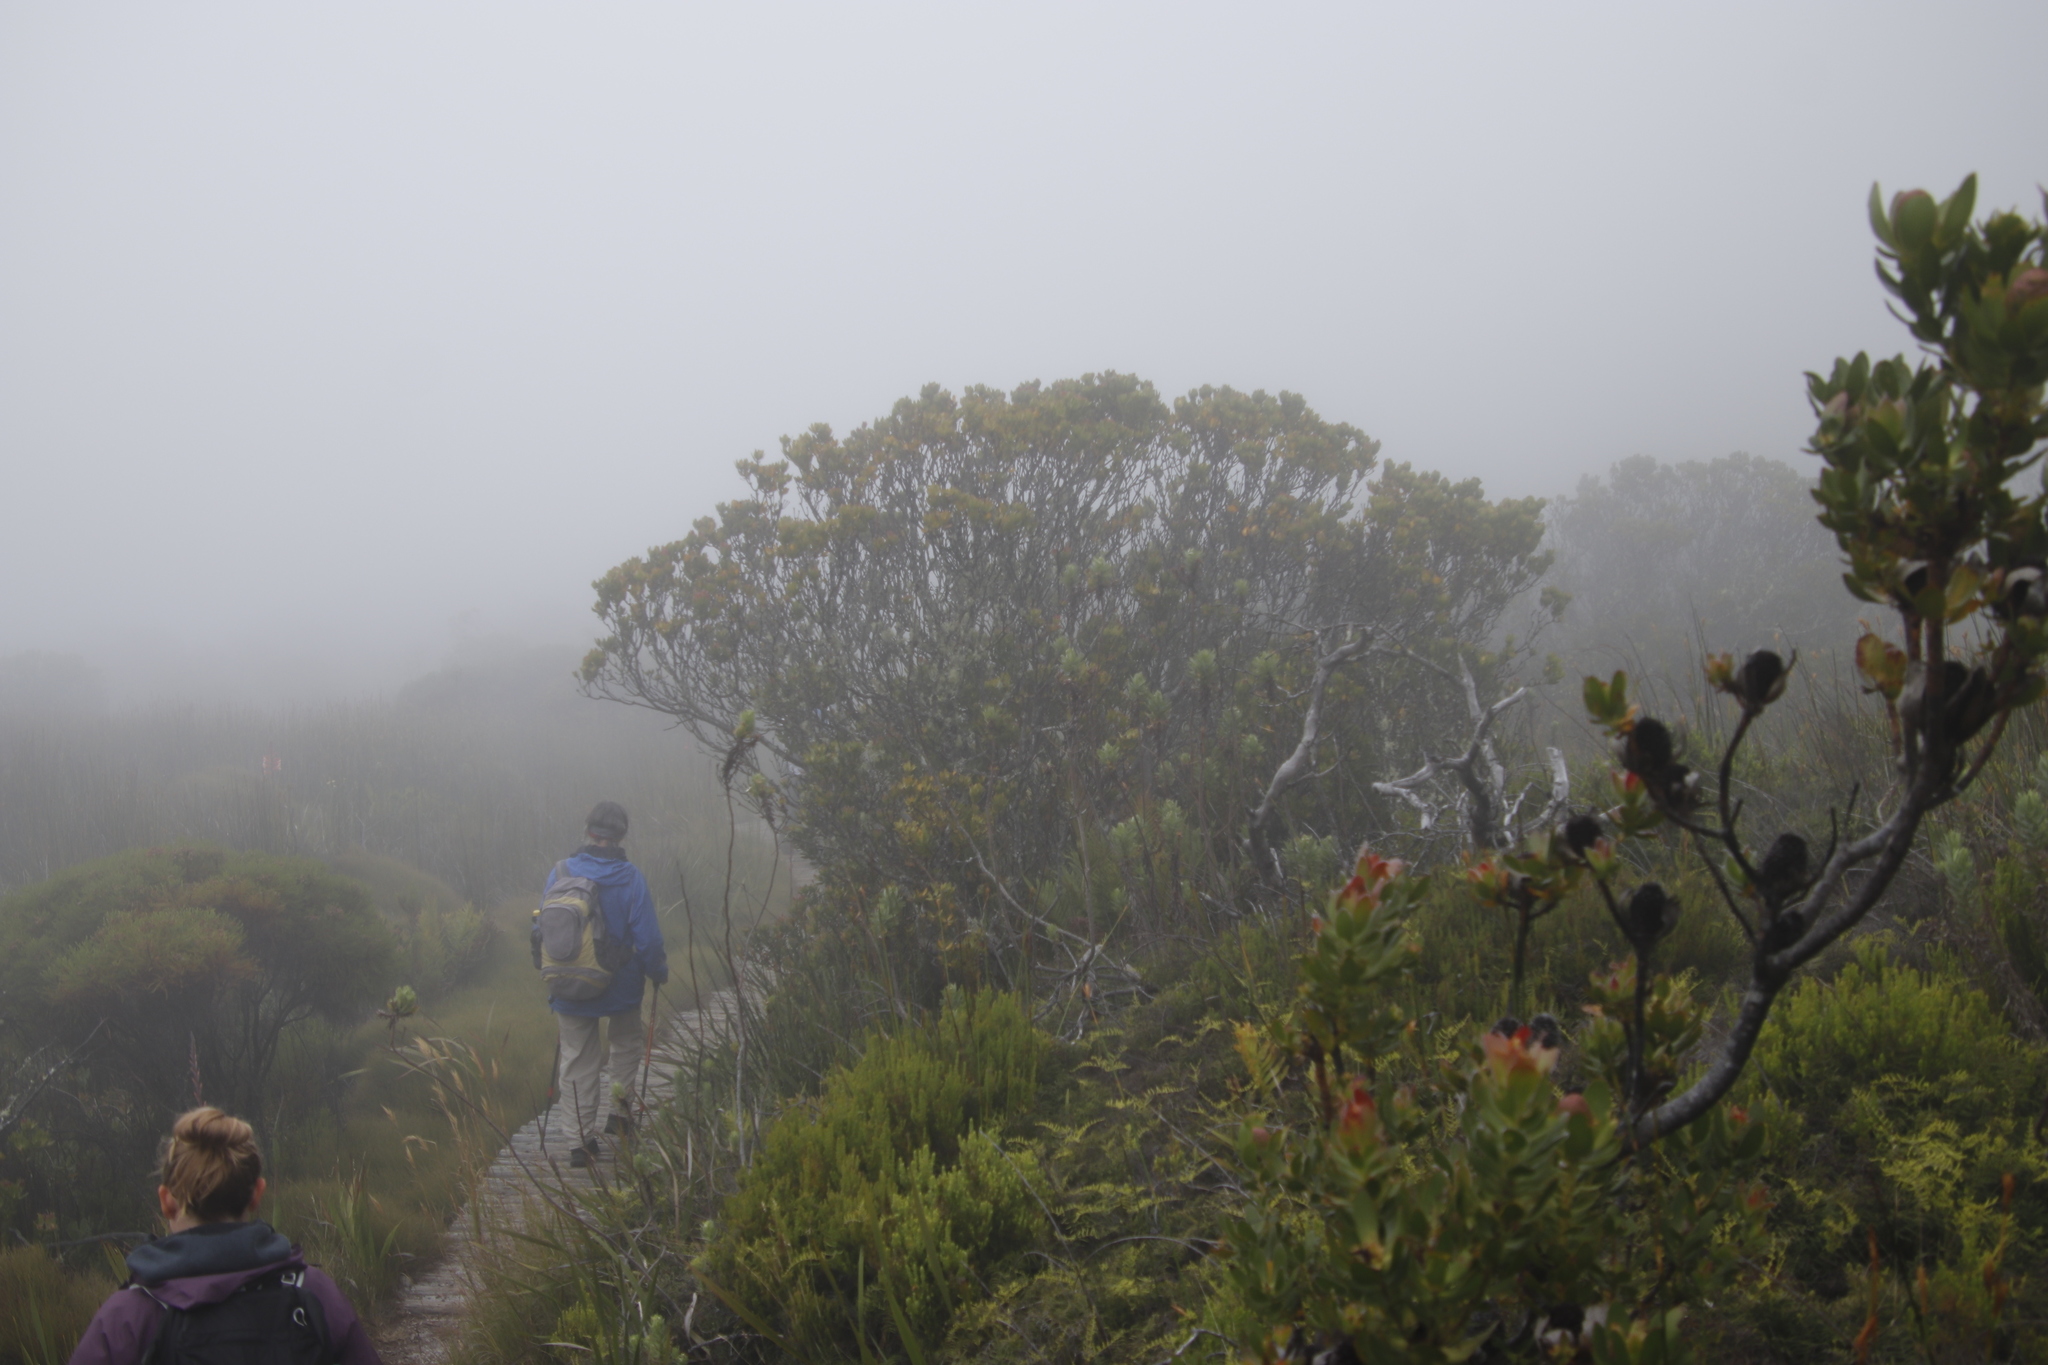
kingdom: Plantae
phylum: Tracheophyta
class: Magnoliopsida
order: Proteales
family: Proteaceae
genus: Leucadendron
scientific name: Leucadendron strobilinum
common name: Mountain rose
